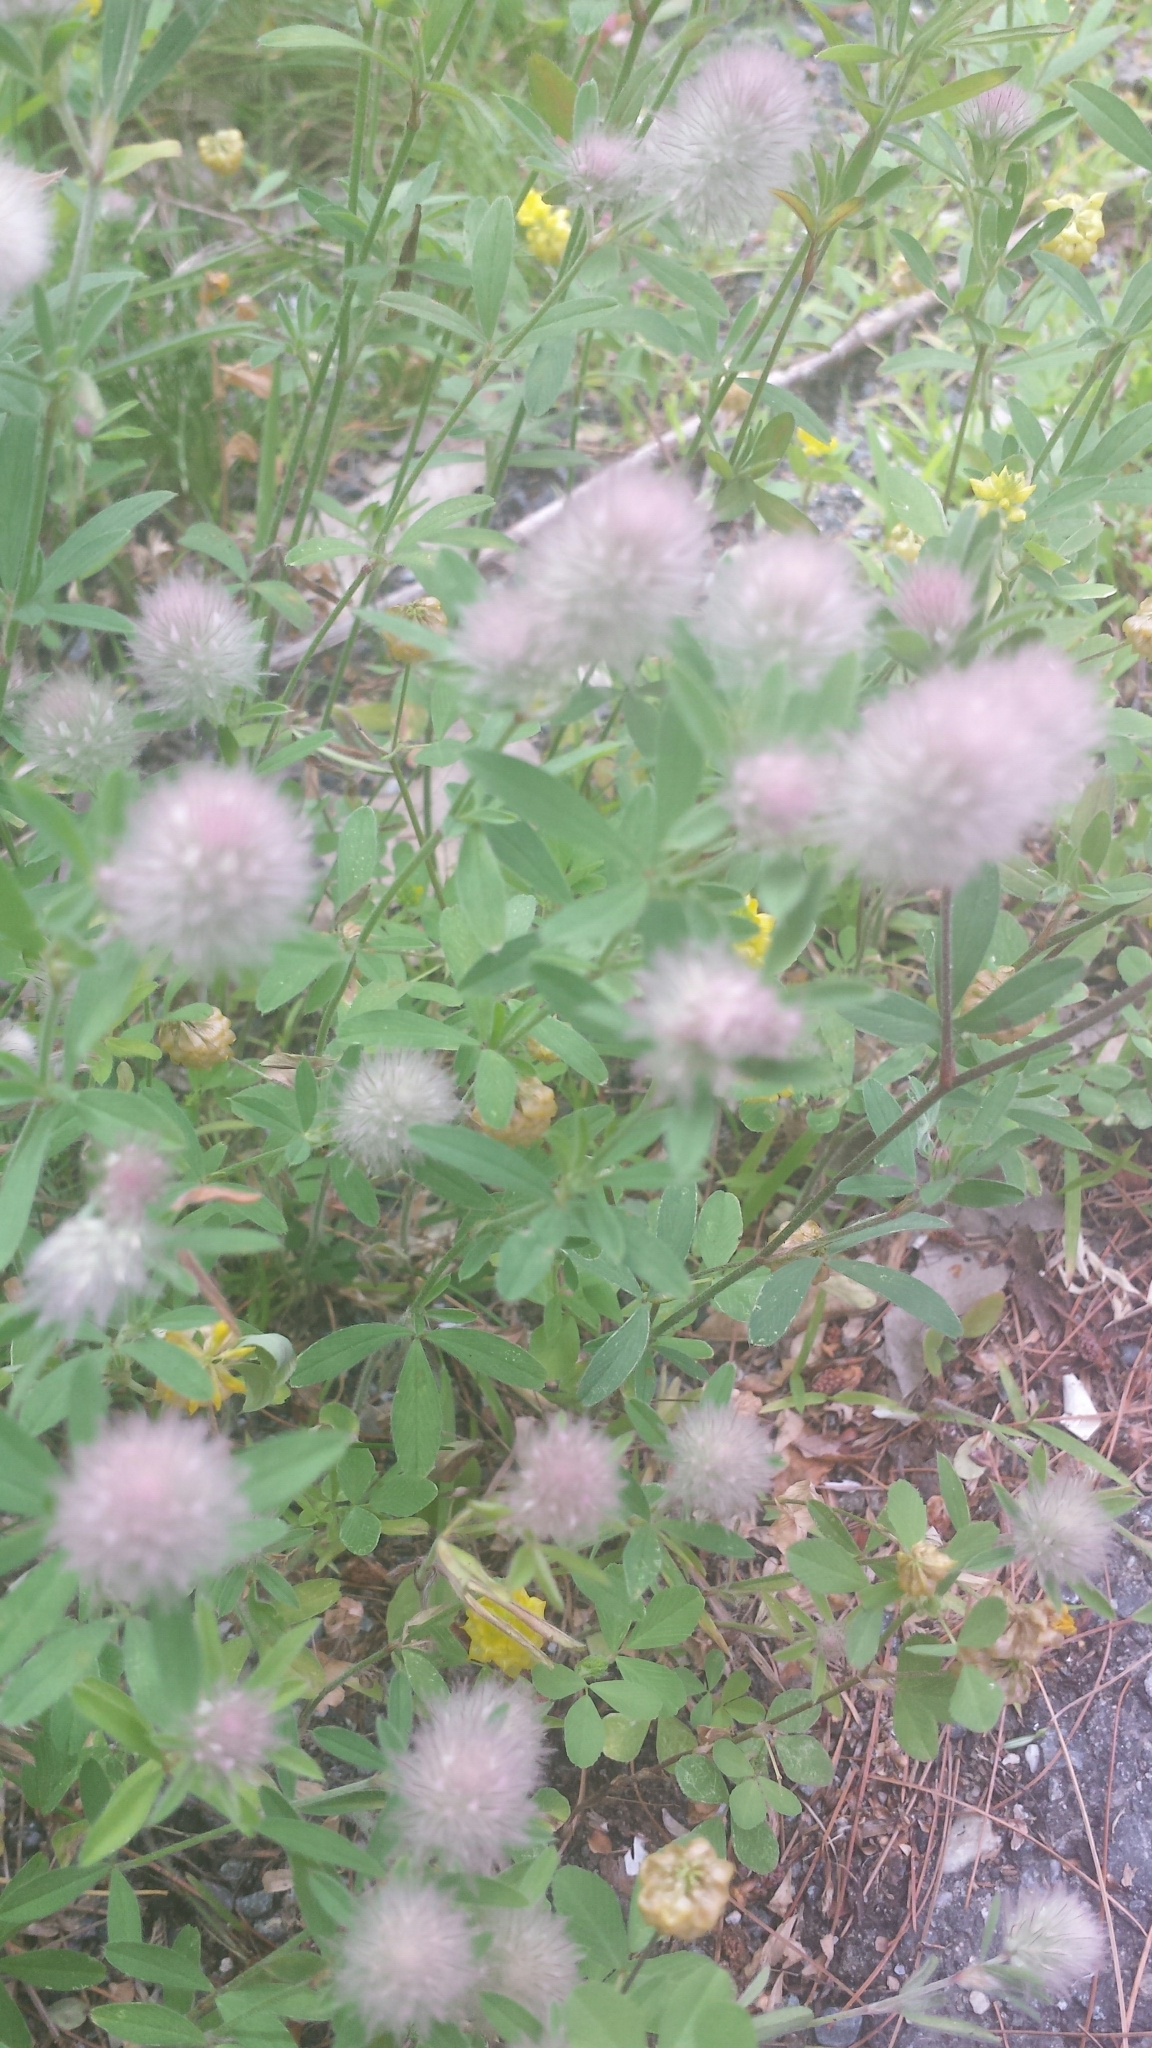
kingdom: Plantae
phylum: Tracheophyta
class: Magnoliopsida
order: Fabales
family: Fabaceae
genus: Trifolium
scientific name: Trifolium arvense
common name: Hare's-foot clover
